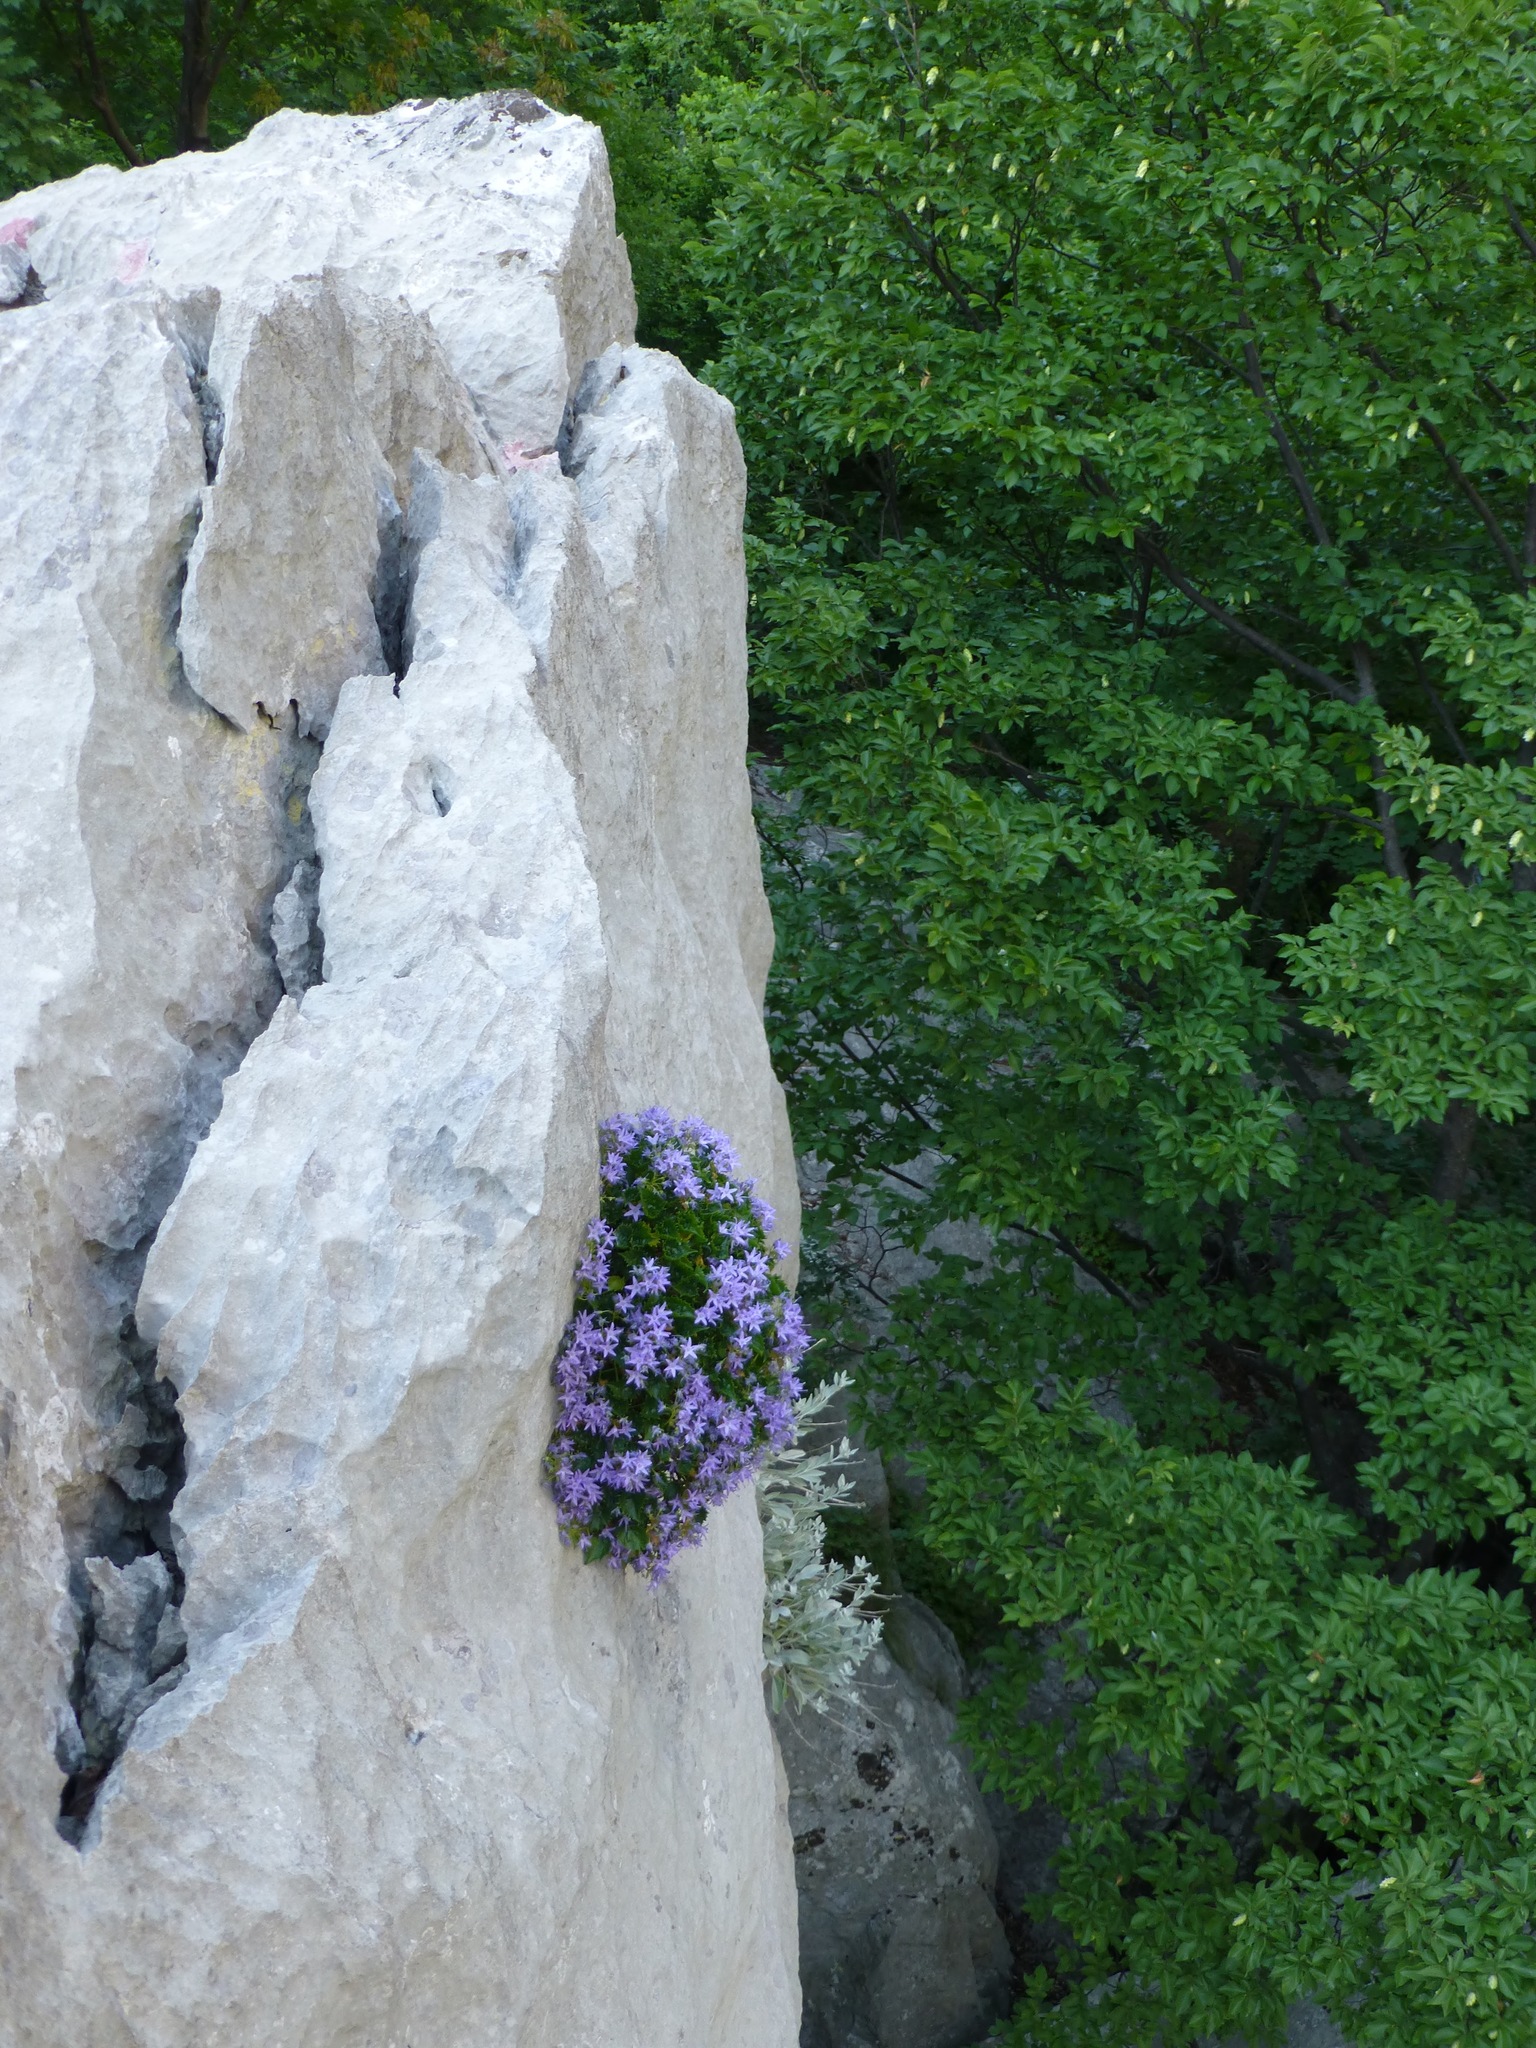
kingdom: Plantae
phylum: Tracheophyta
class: Magnoliopsida
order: Asterales
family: Campanulaceae
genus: Campanula
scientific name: Campanula fenestrellata
